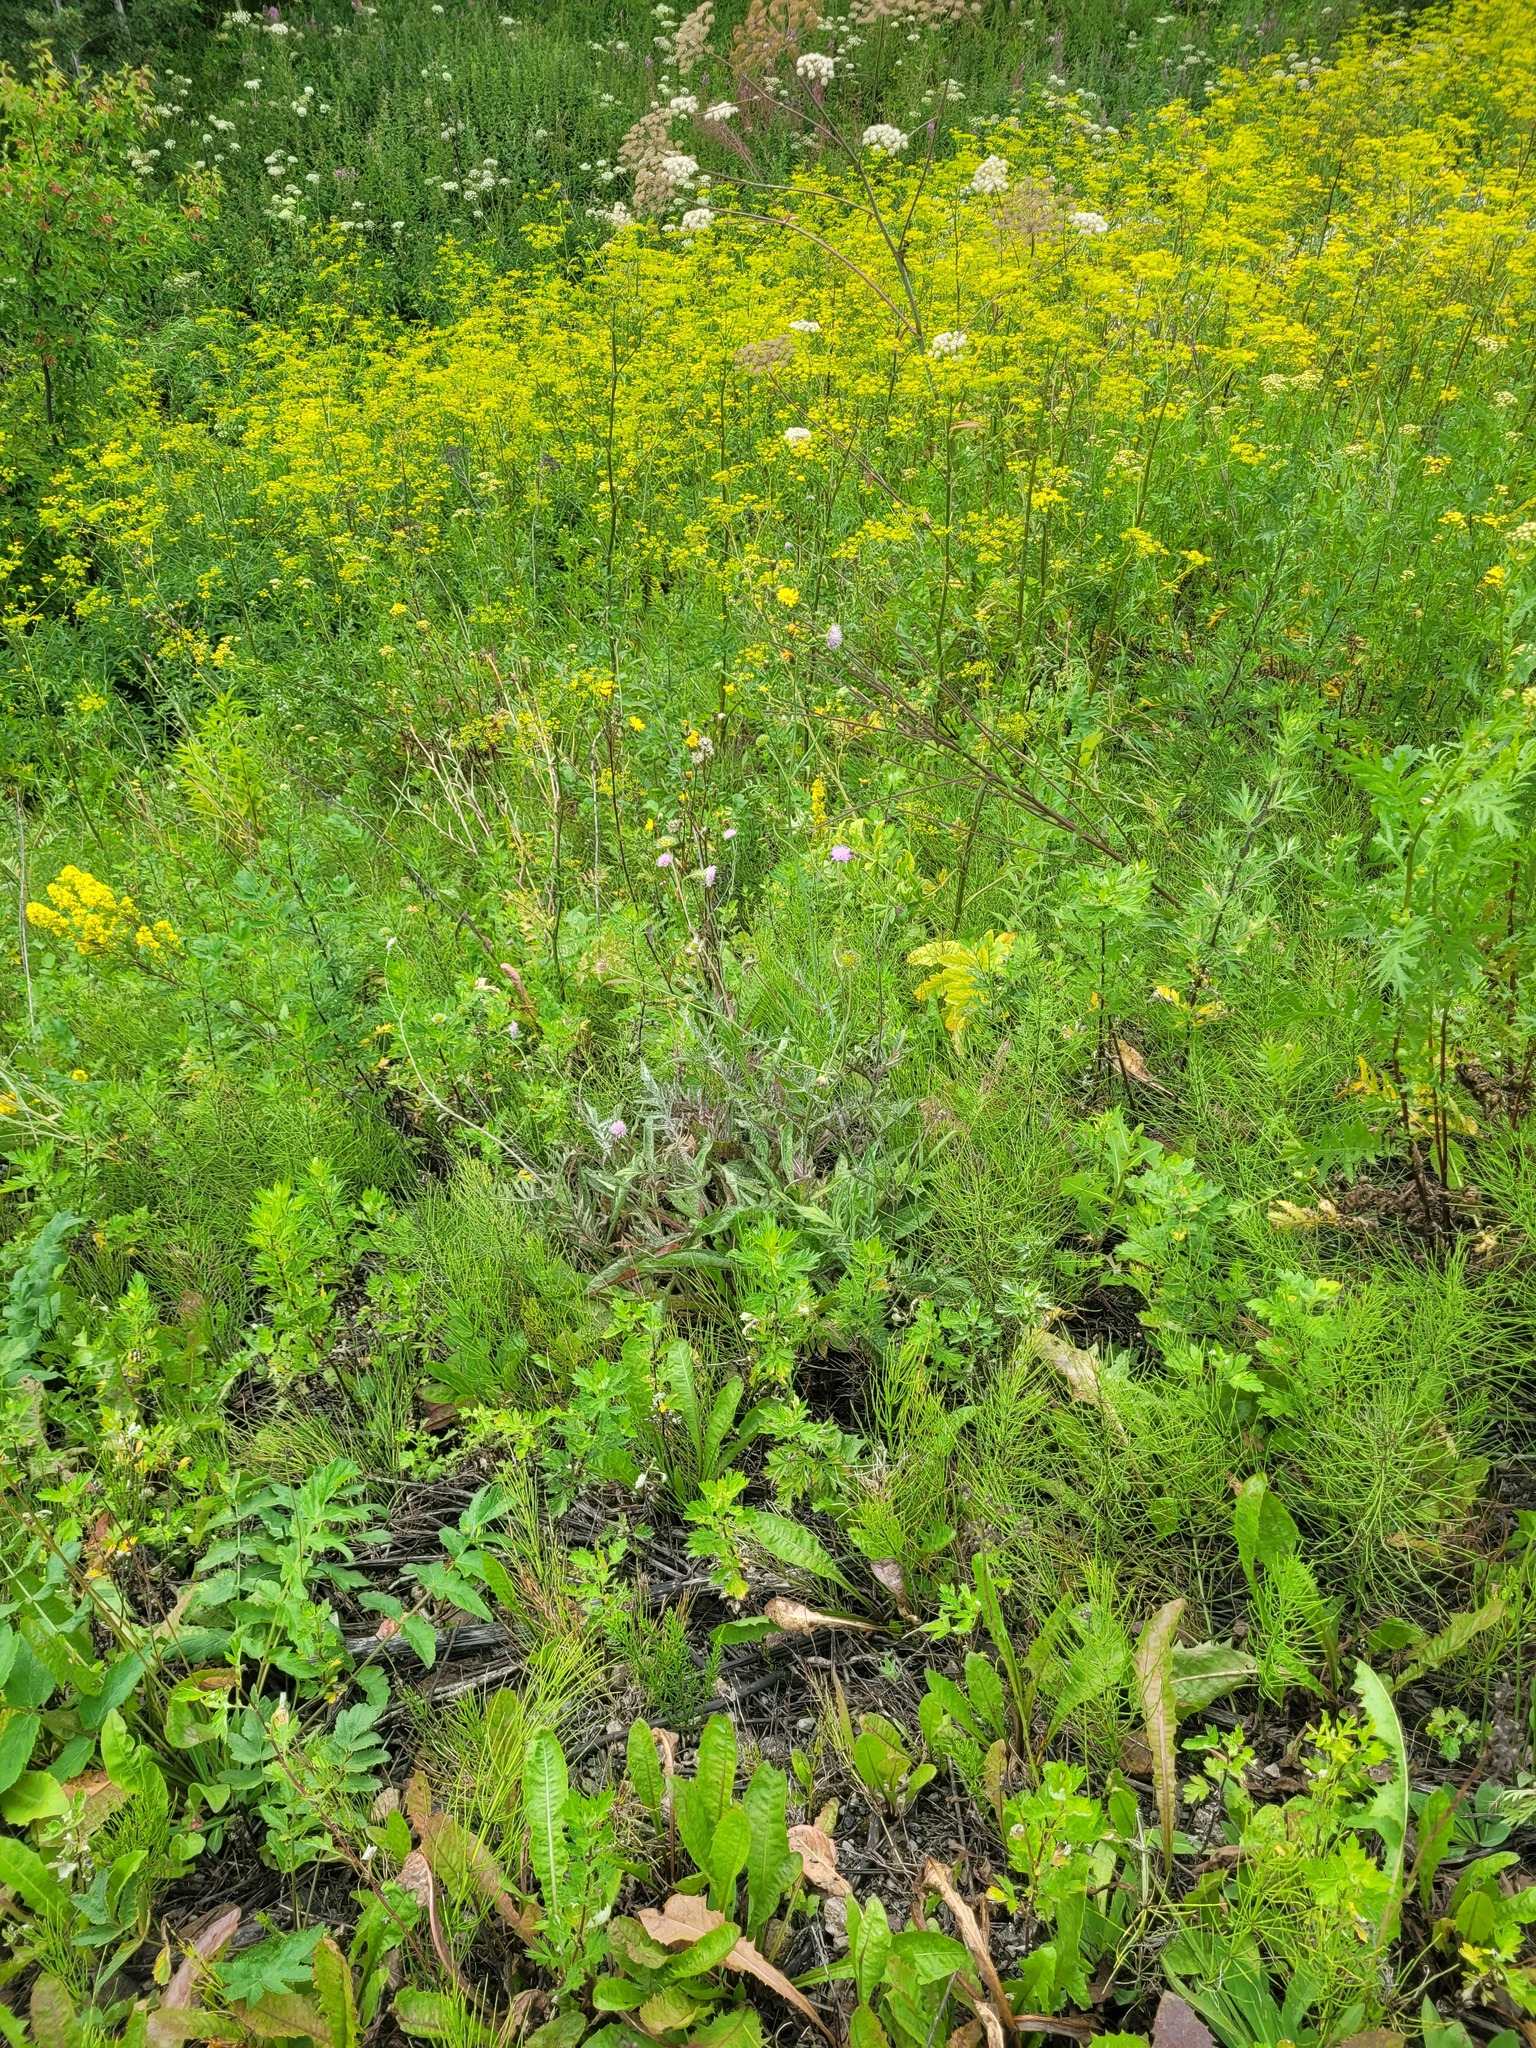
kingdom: Plantae
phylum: Tracheophyta
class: Magnoliopsida
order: Dipsacales
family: Caprifoliaceae
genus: Knautia
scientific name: Knautia arvensis
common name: Field scabiosa
